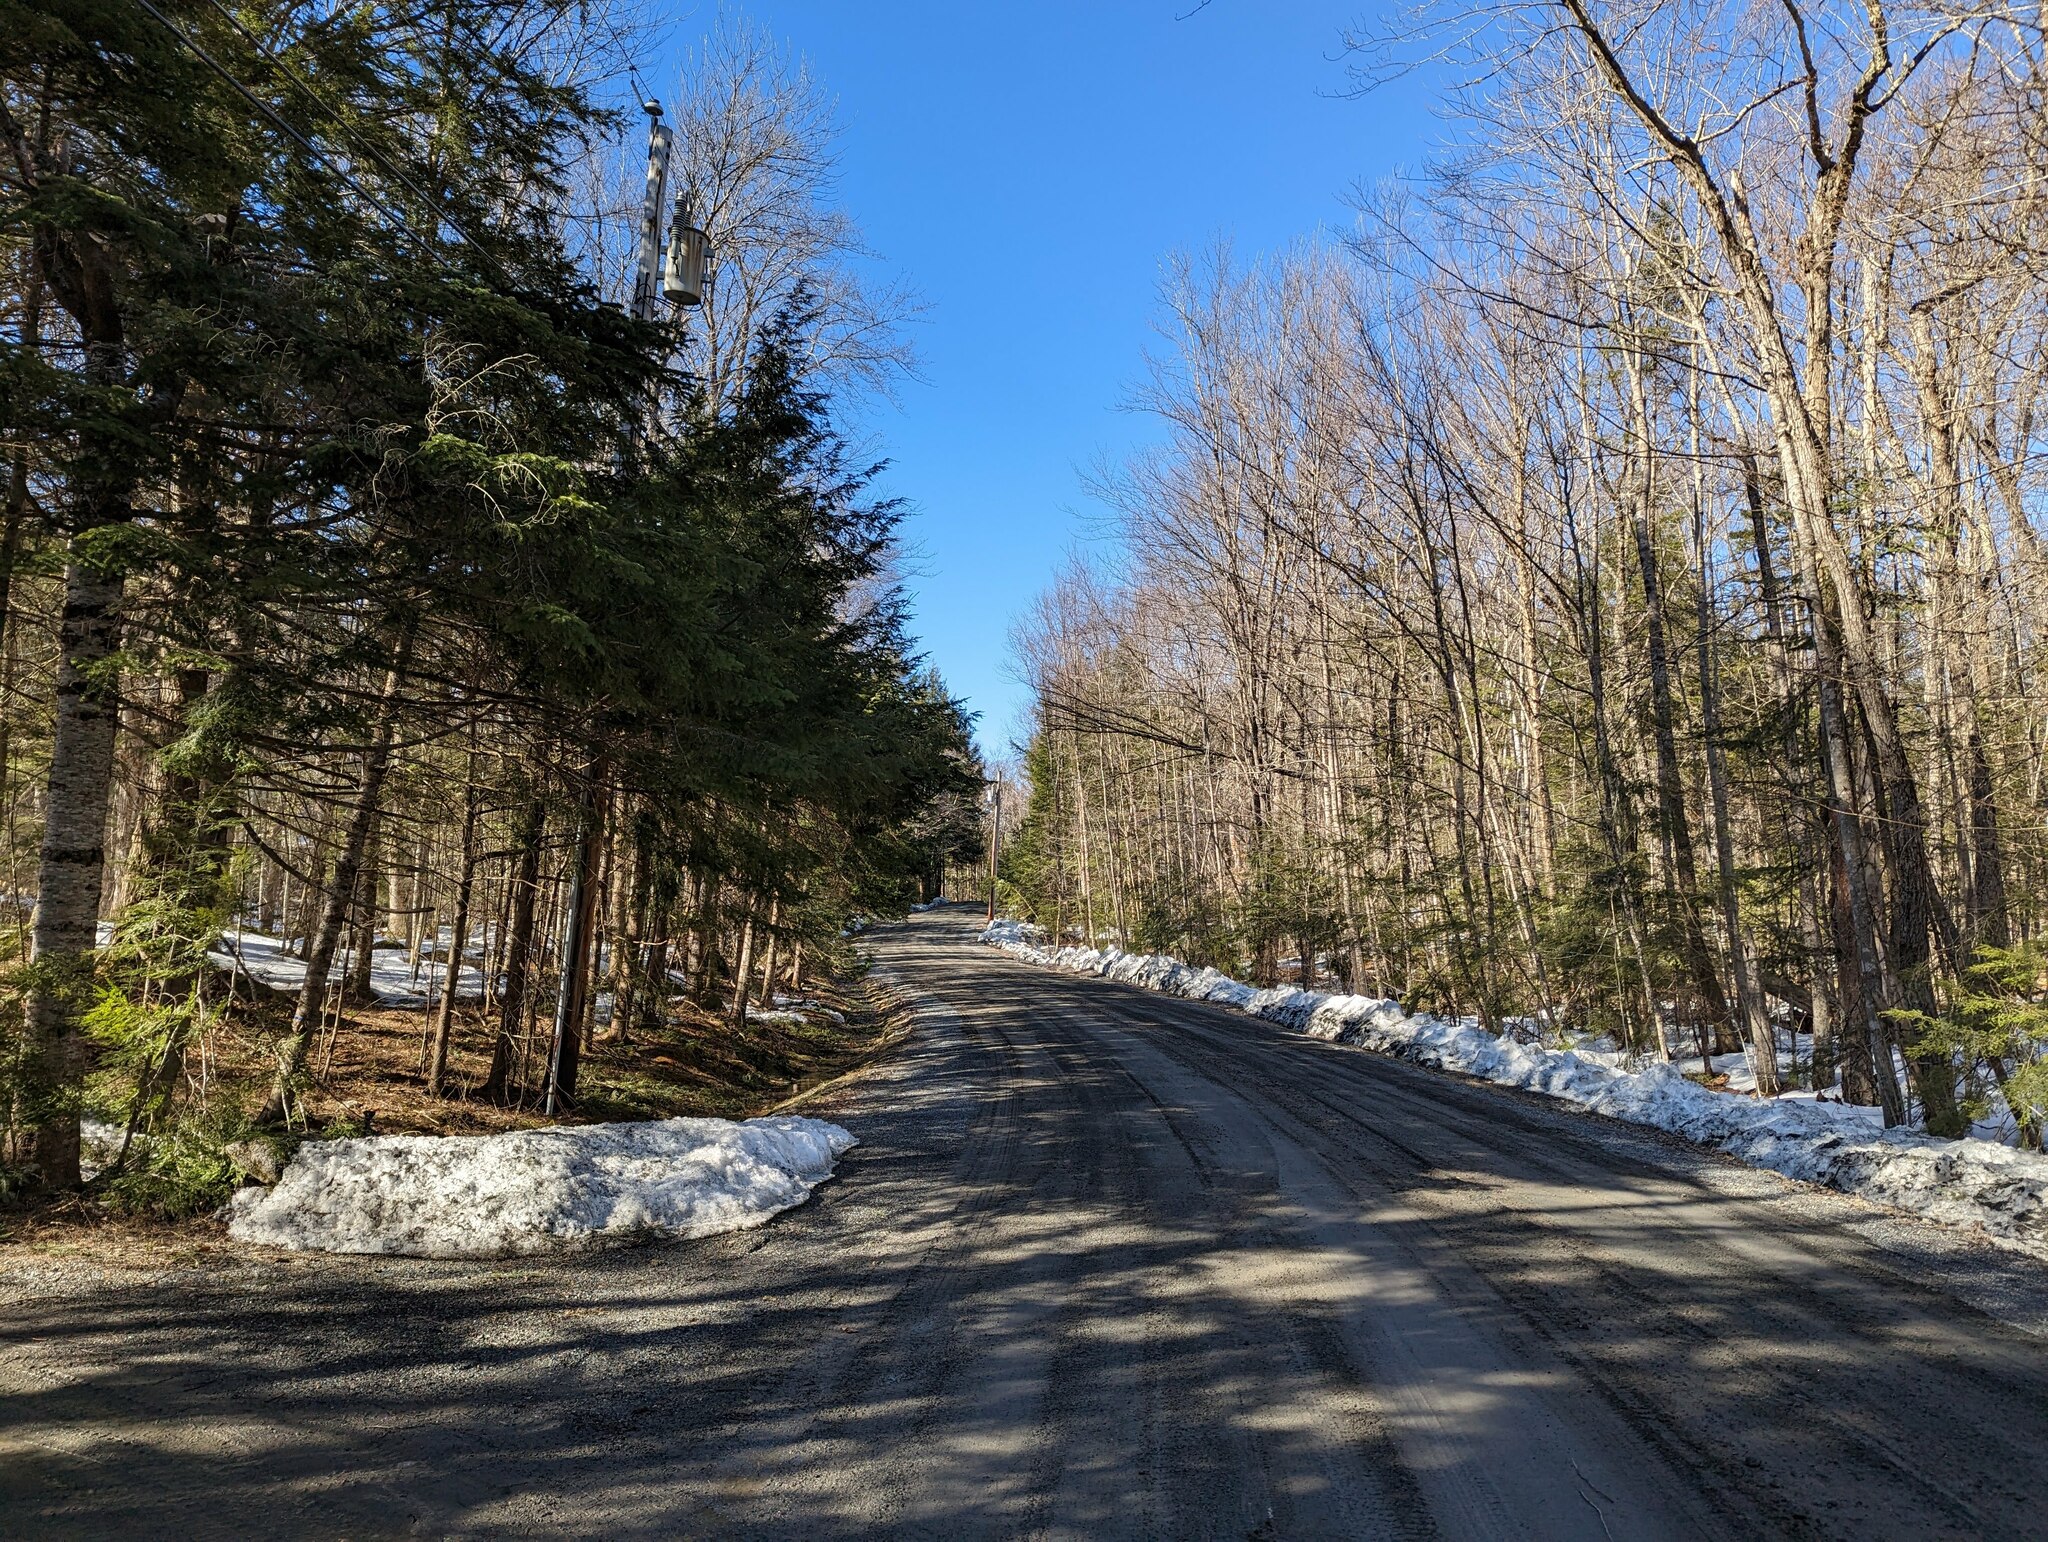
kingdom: Plantae
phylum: Tracheophyta
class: Pinopsida
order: Pinales
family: Pinaceae
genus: Tsuga
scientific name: Tsuga canadensis
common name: Eastern hemlock
